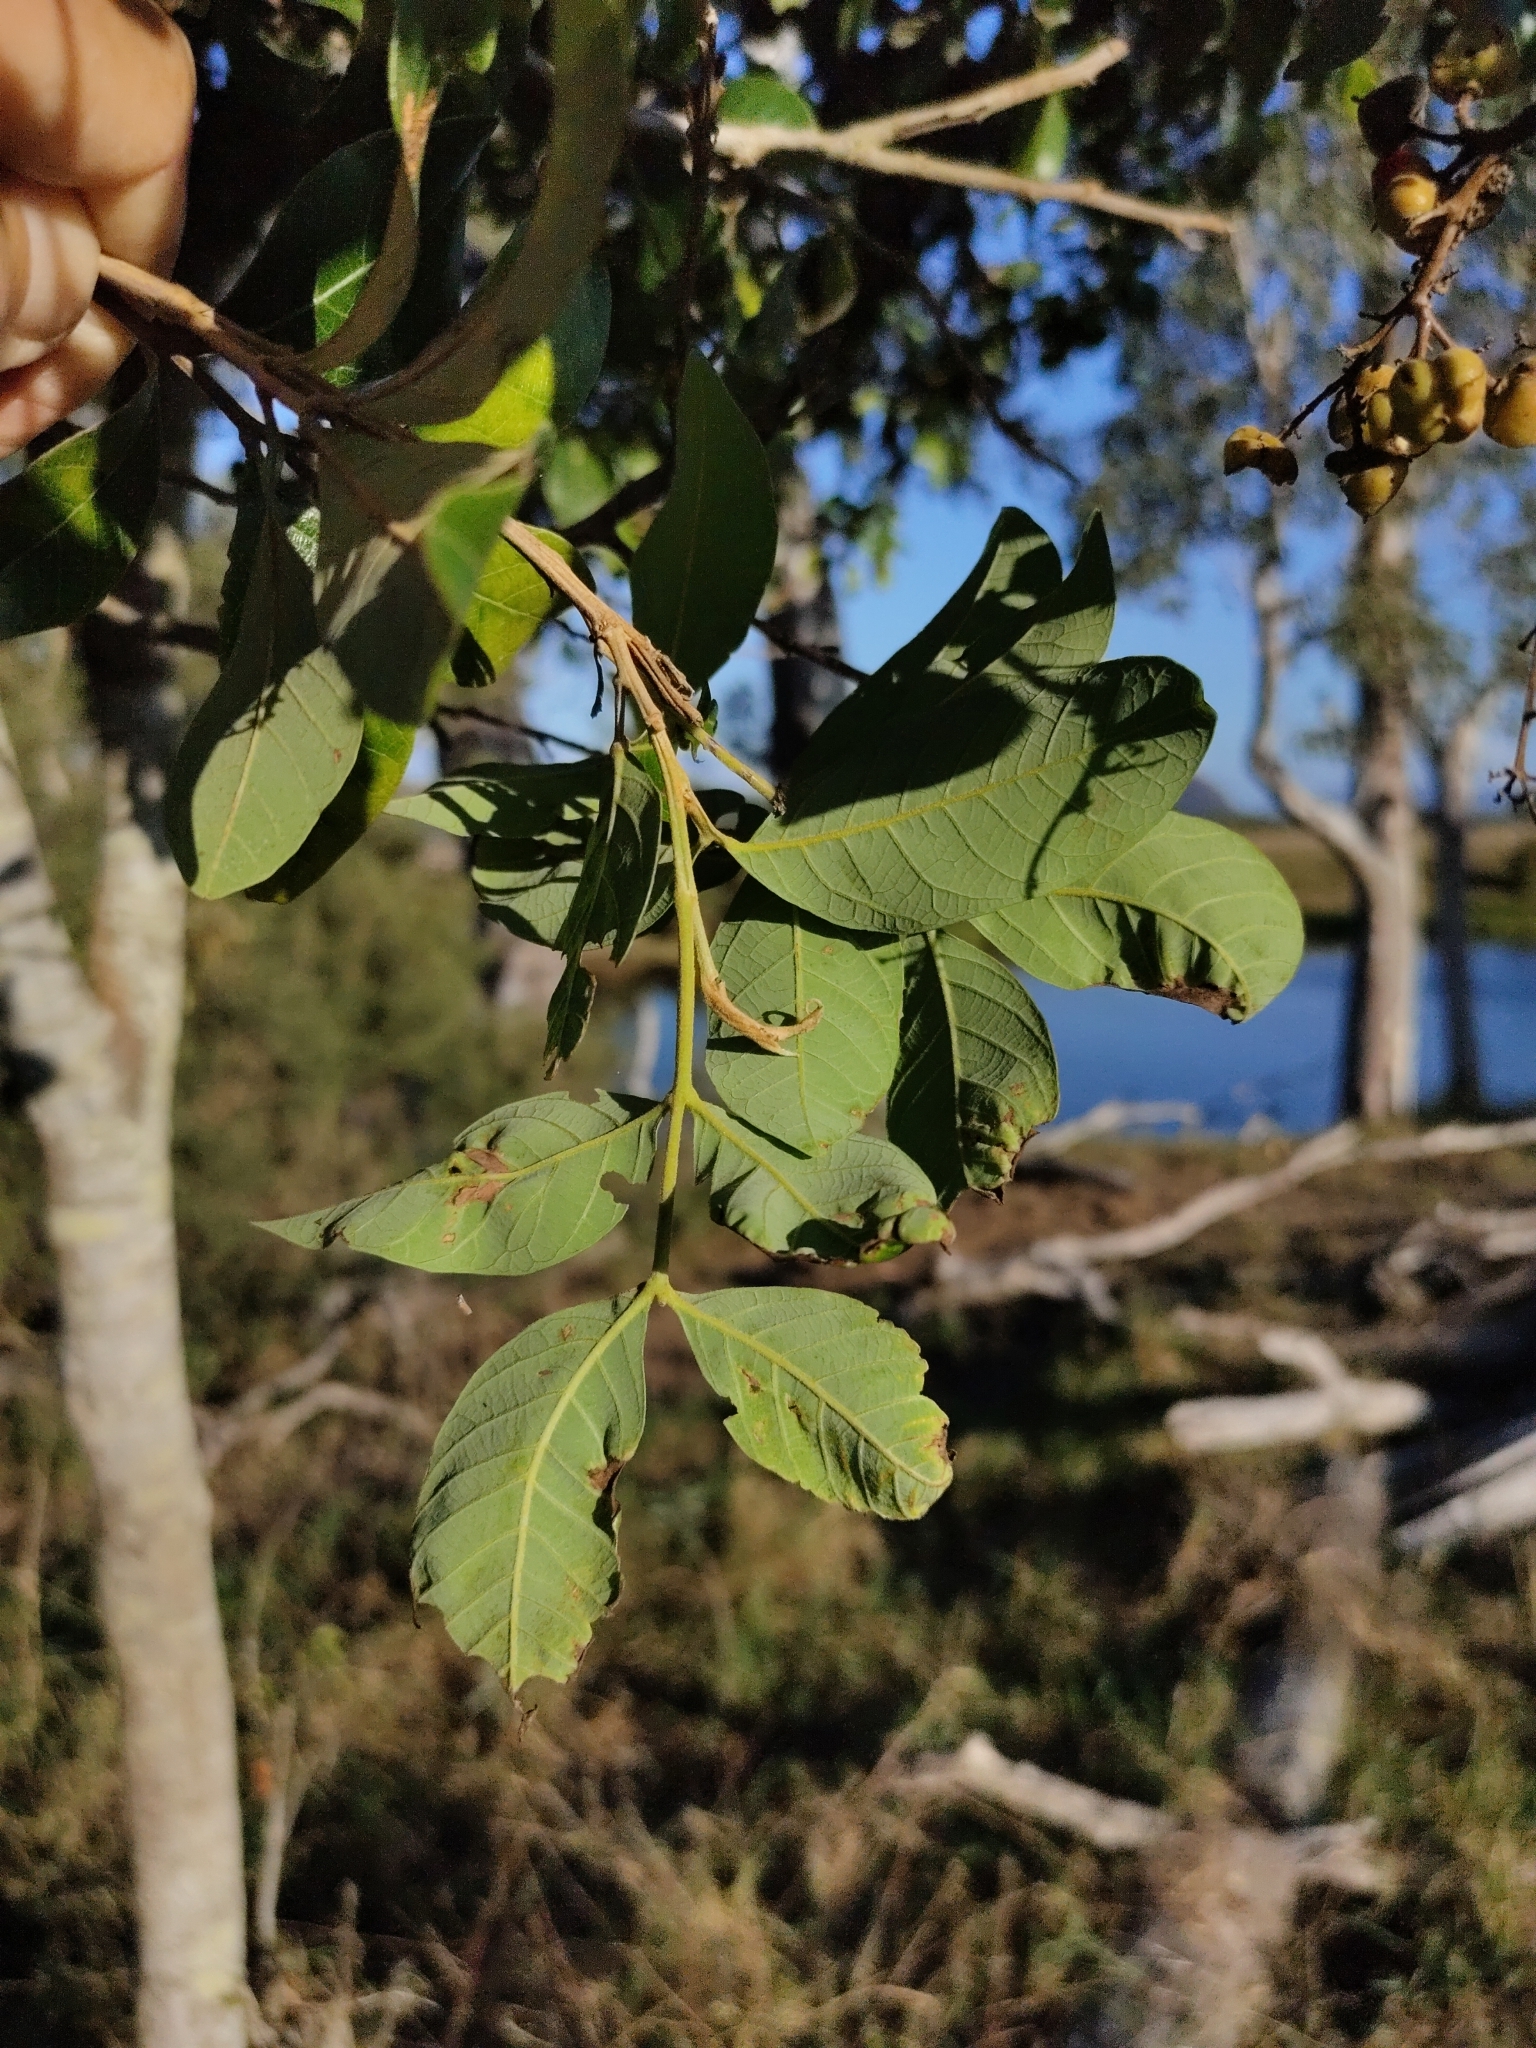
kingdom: Plantae
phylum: Tracheophyta
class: Magnoliopsida
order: Sapindales
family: Sapindaceae
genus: Alectryon
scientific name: Alectryon connatus
